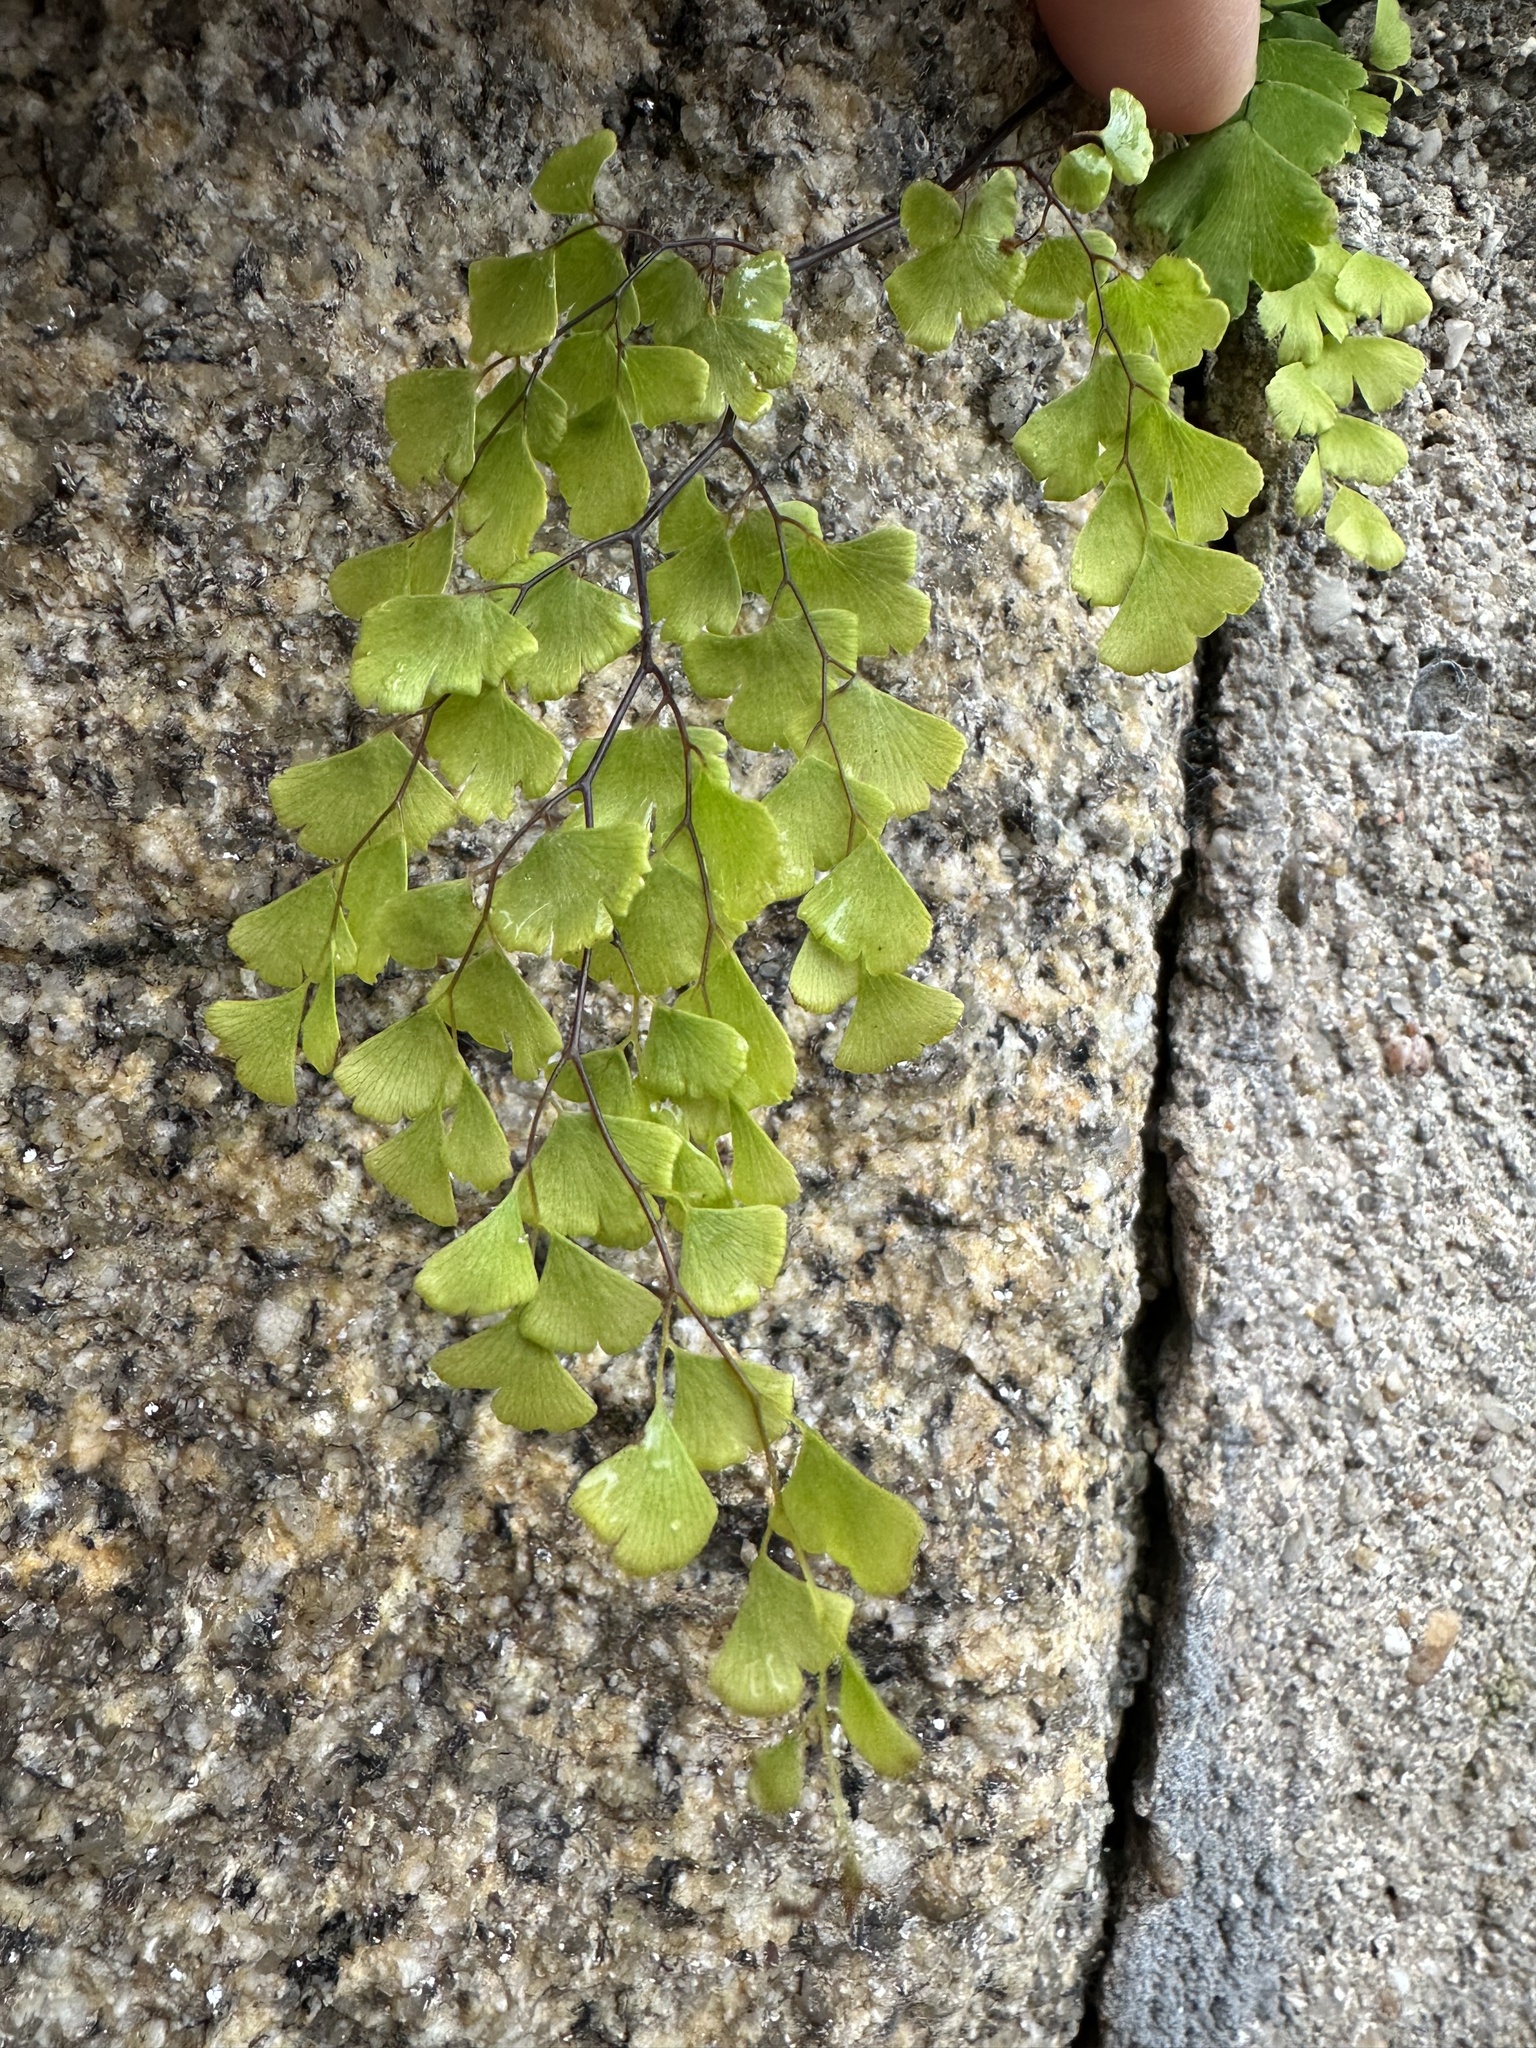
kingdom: Plantae
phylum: Tracheophyta
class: Polypodiopsida
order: Polypodiales
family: Pteridaceae
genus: Adiantum
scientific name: Adiantum capillus-veneris
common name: Maidenhair fern
